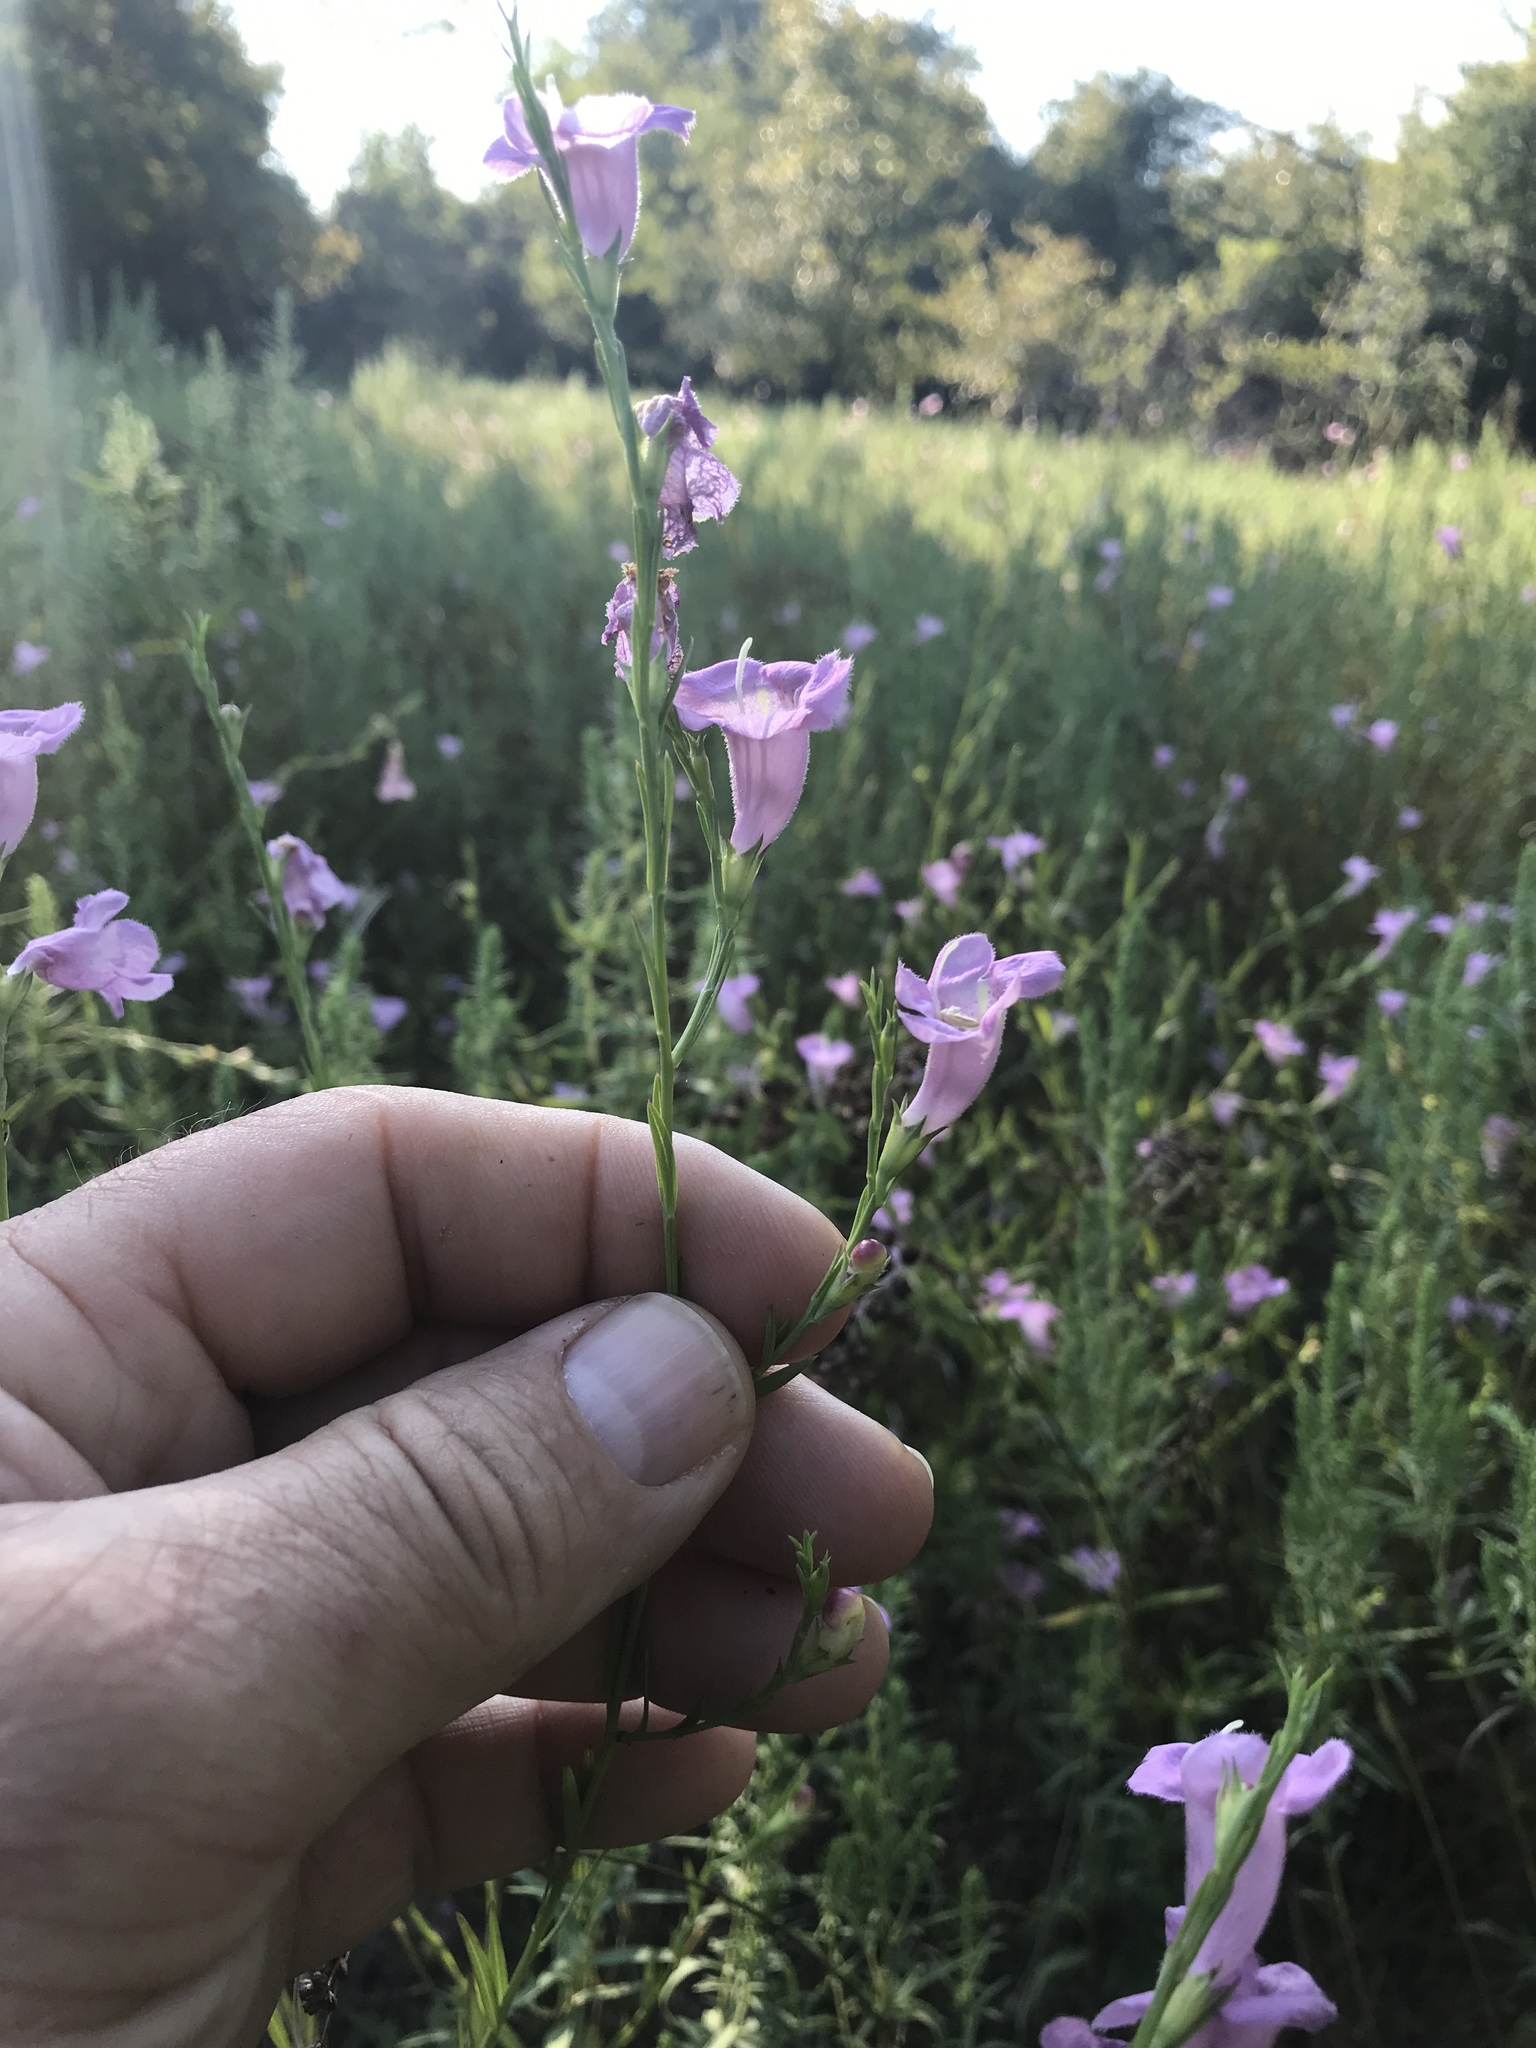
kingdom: Plantae
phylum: Tracheophyta
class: Magnoliopsida
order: Lamiales
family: Orobanchaceae
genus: Agalinis
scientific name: Agalinis heterophylla
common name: Prairie agalinis
